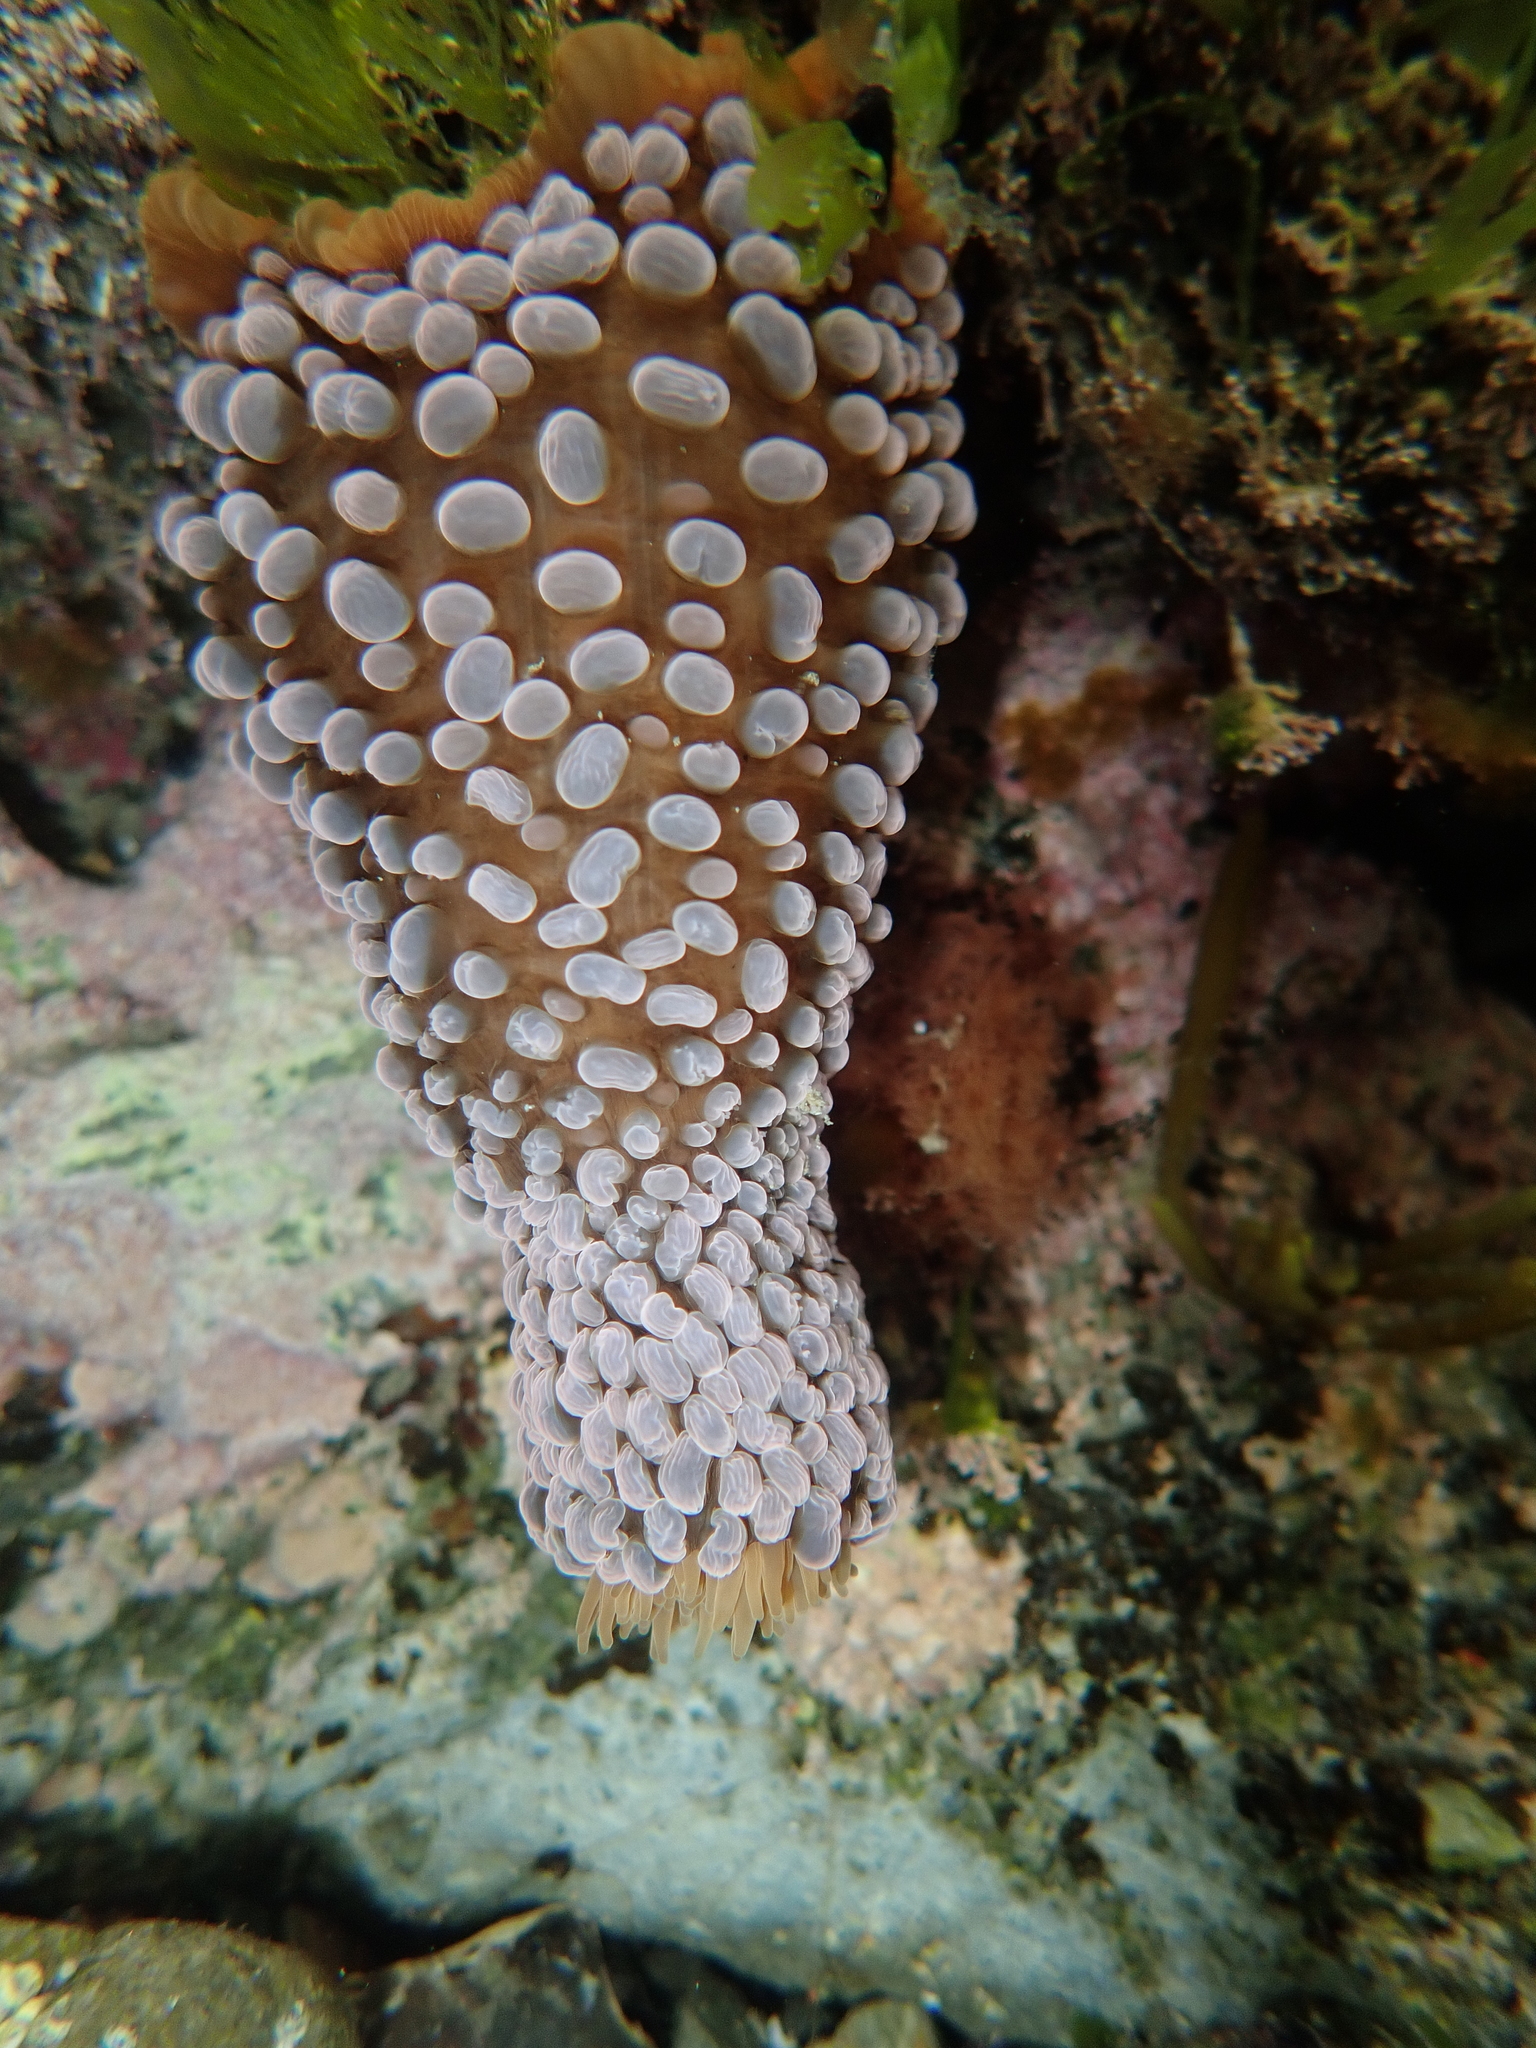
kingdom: Animalia
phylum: Cnidaria
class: Anthozoa
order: Actiniaria
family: Actiniidae
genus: Phlyctenactis
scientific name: Phlyctenactis tuberculosa
